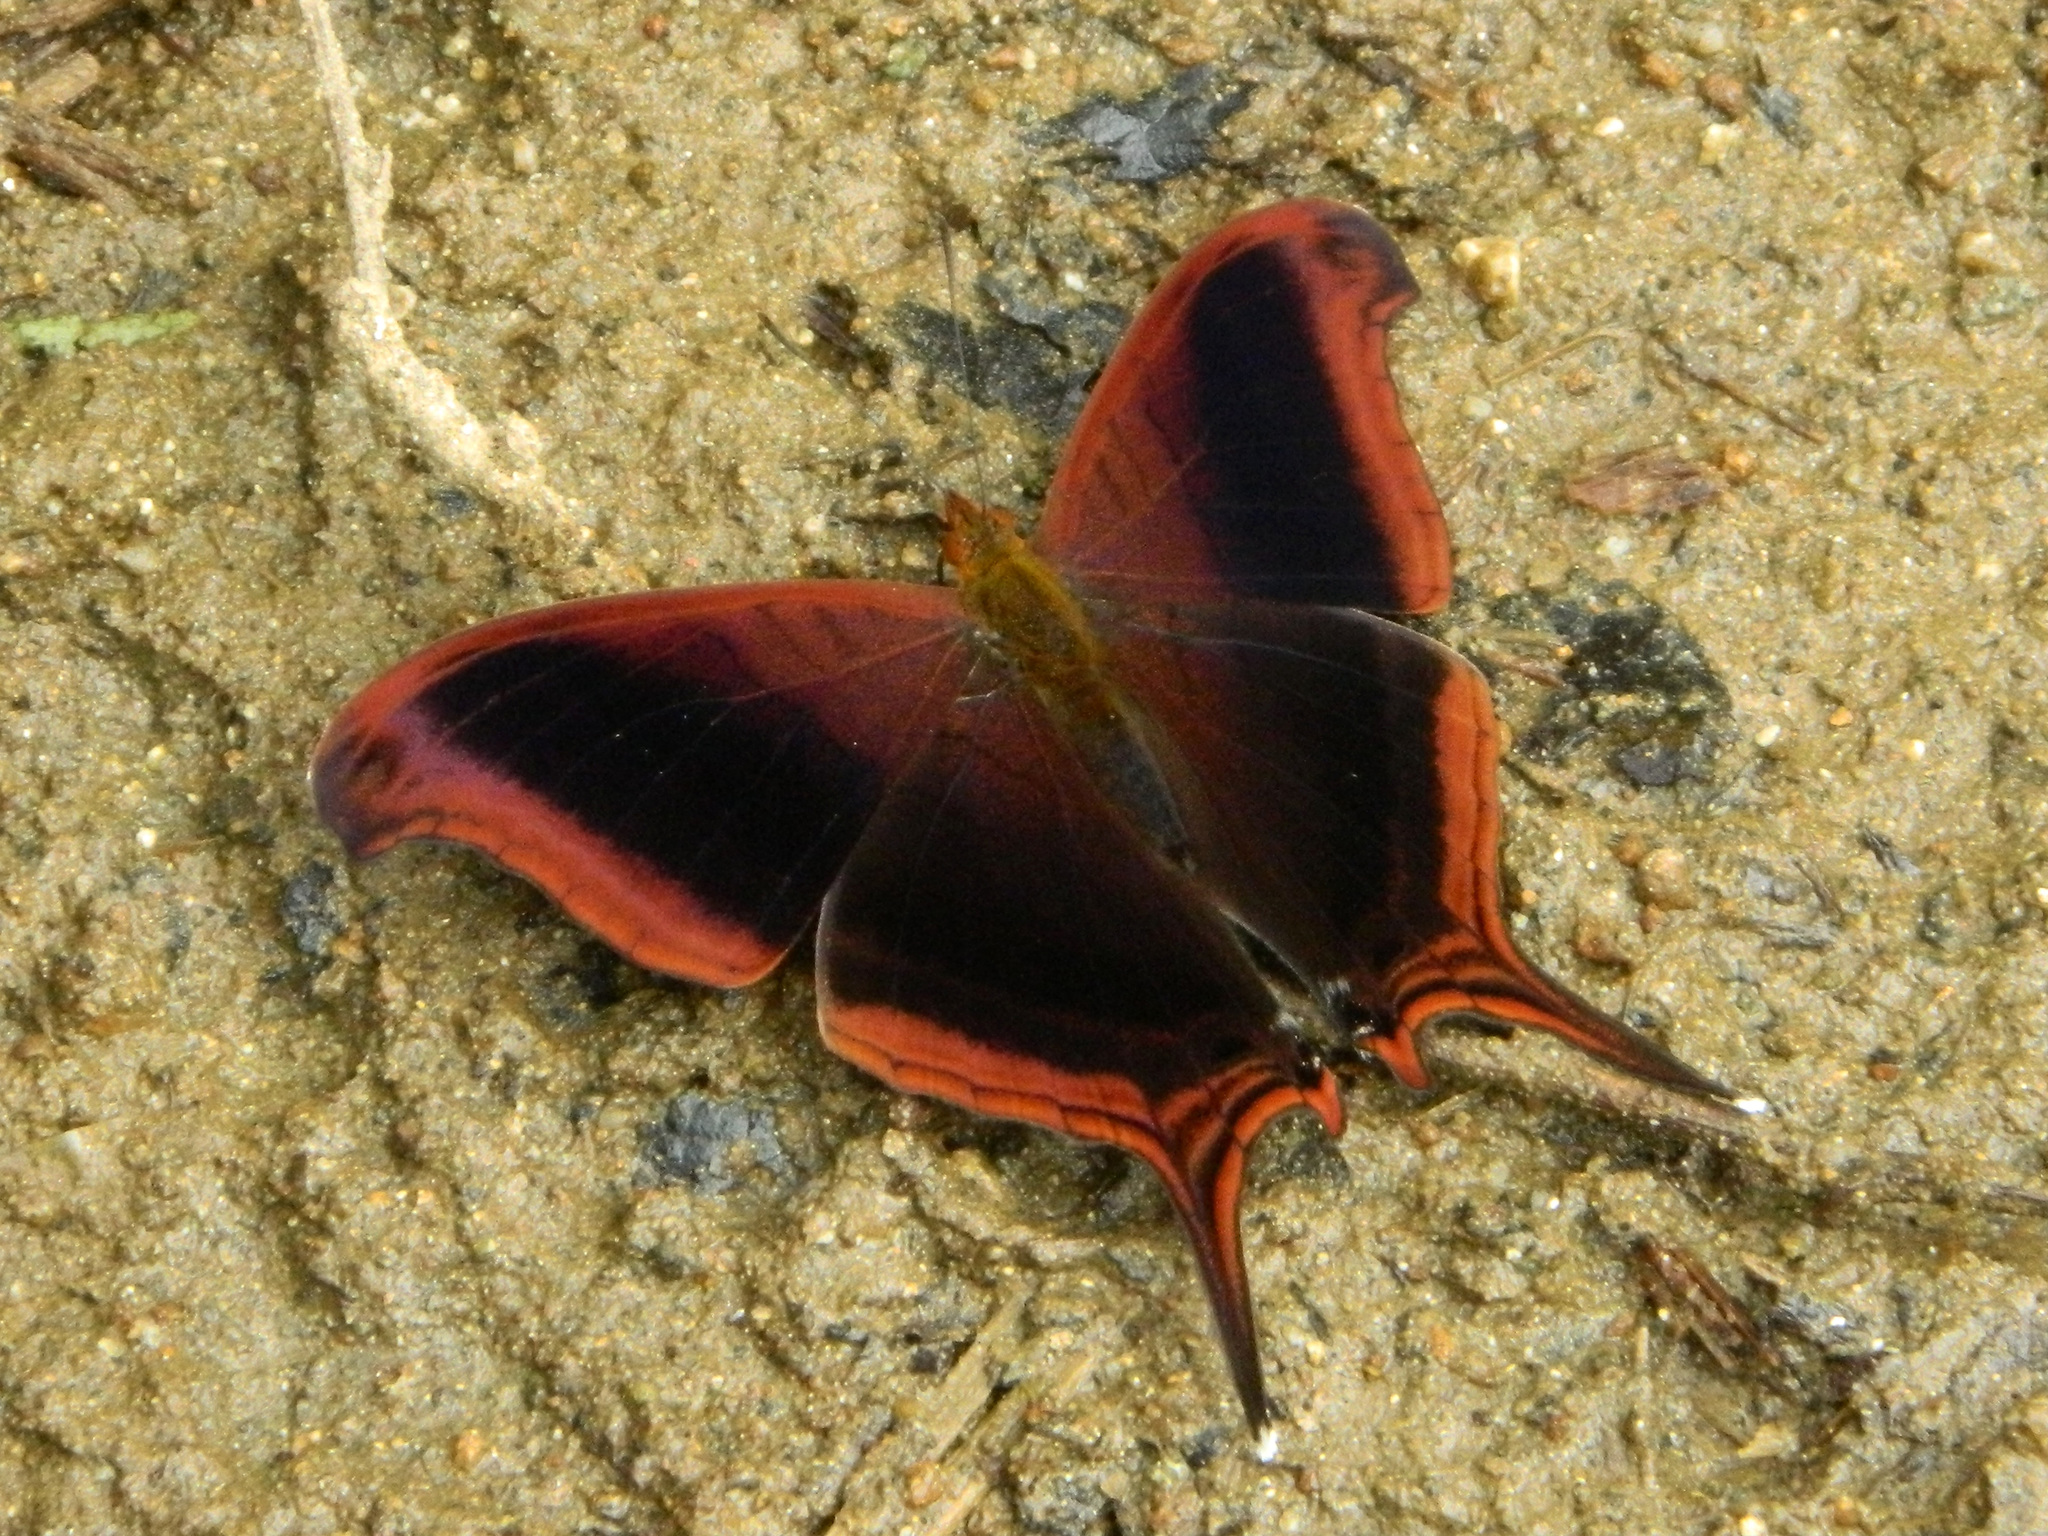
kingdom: Animalia
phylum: Arthropoda
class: Insecta
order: Lepidoptera
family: Nymphalidae
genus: Marpesia
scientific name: Marpesia zerynthia
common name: Waiter daggerwing
